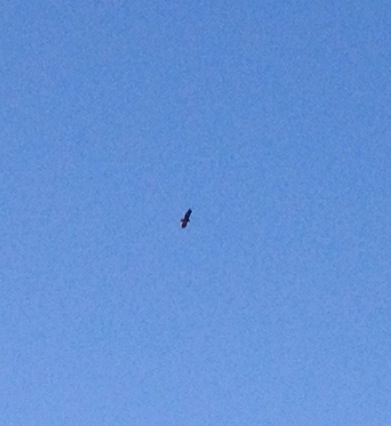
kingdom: Animalia
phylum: Chordata
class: Aves
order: Accipitriformes
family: Accipitridae
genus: Buteo
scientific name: Buteo jamaicensis
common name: Red-tailed hawk
